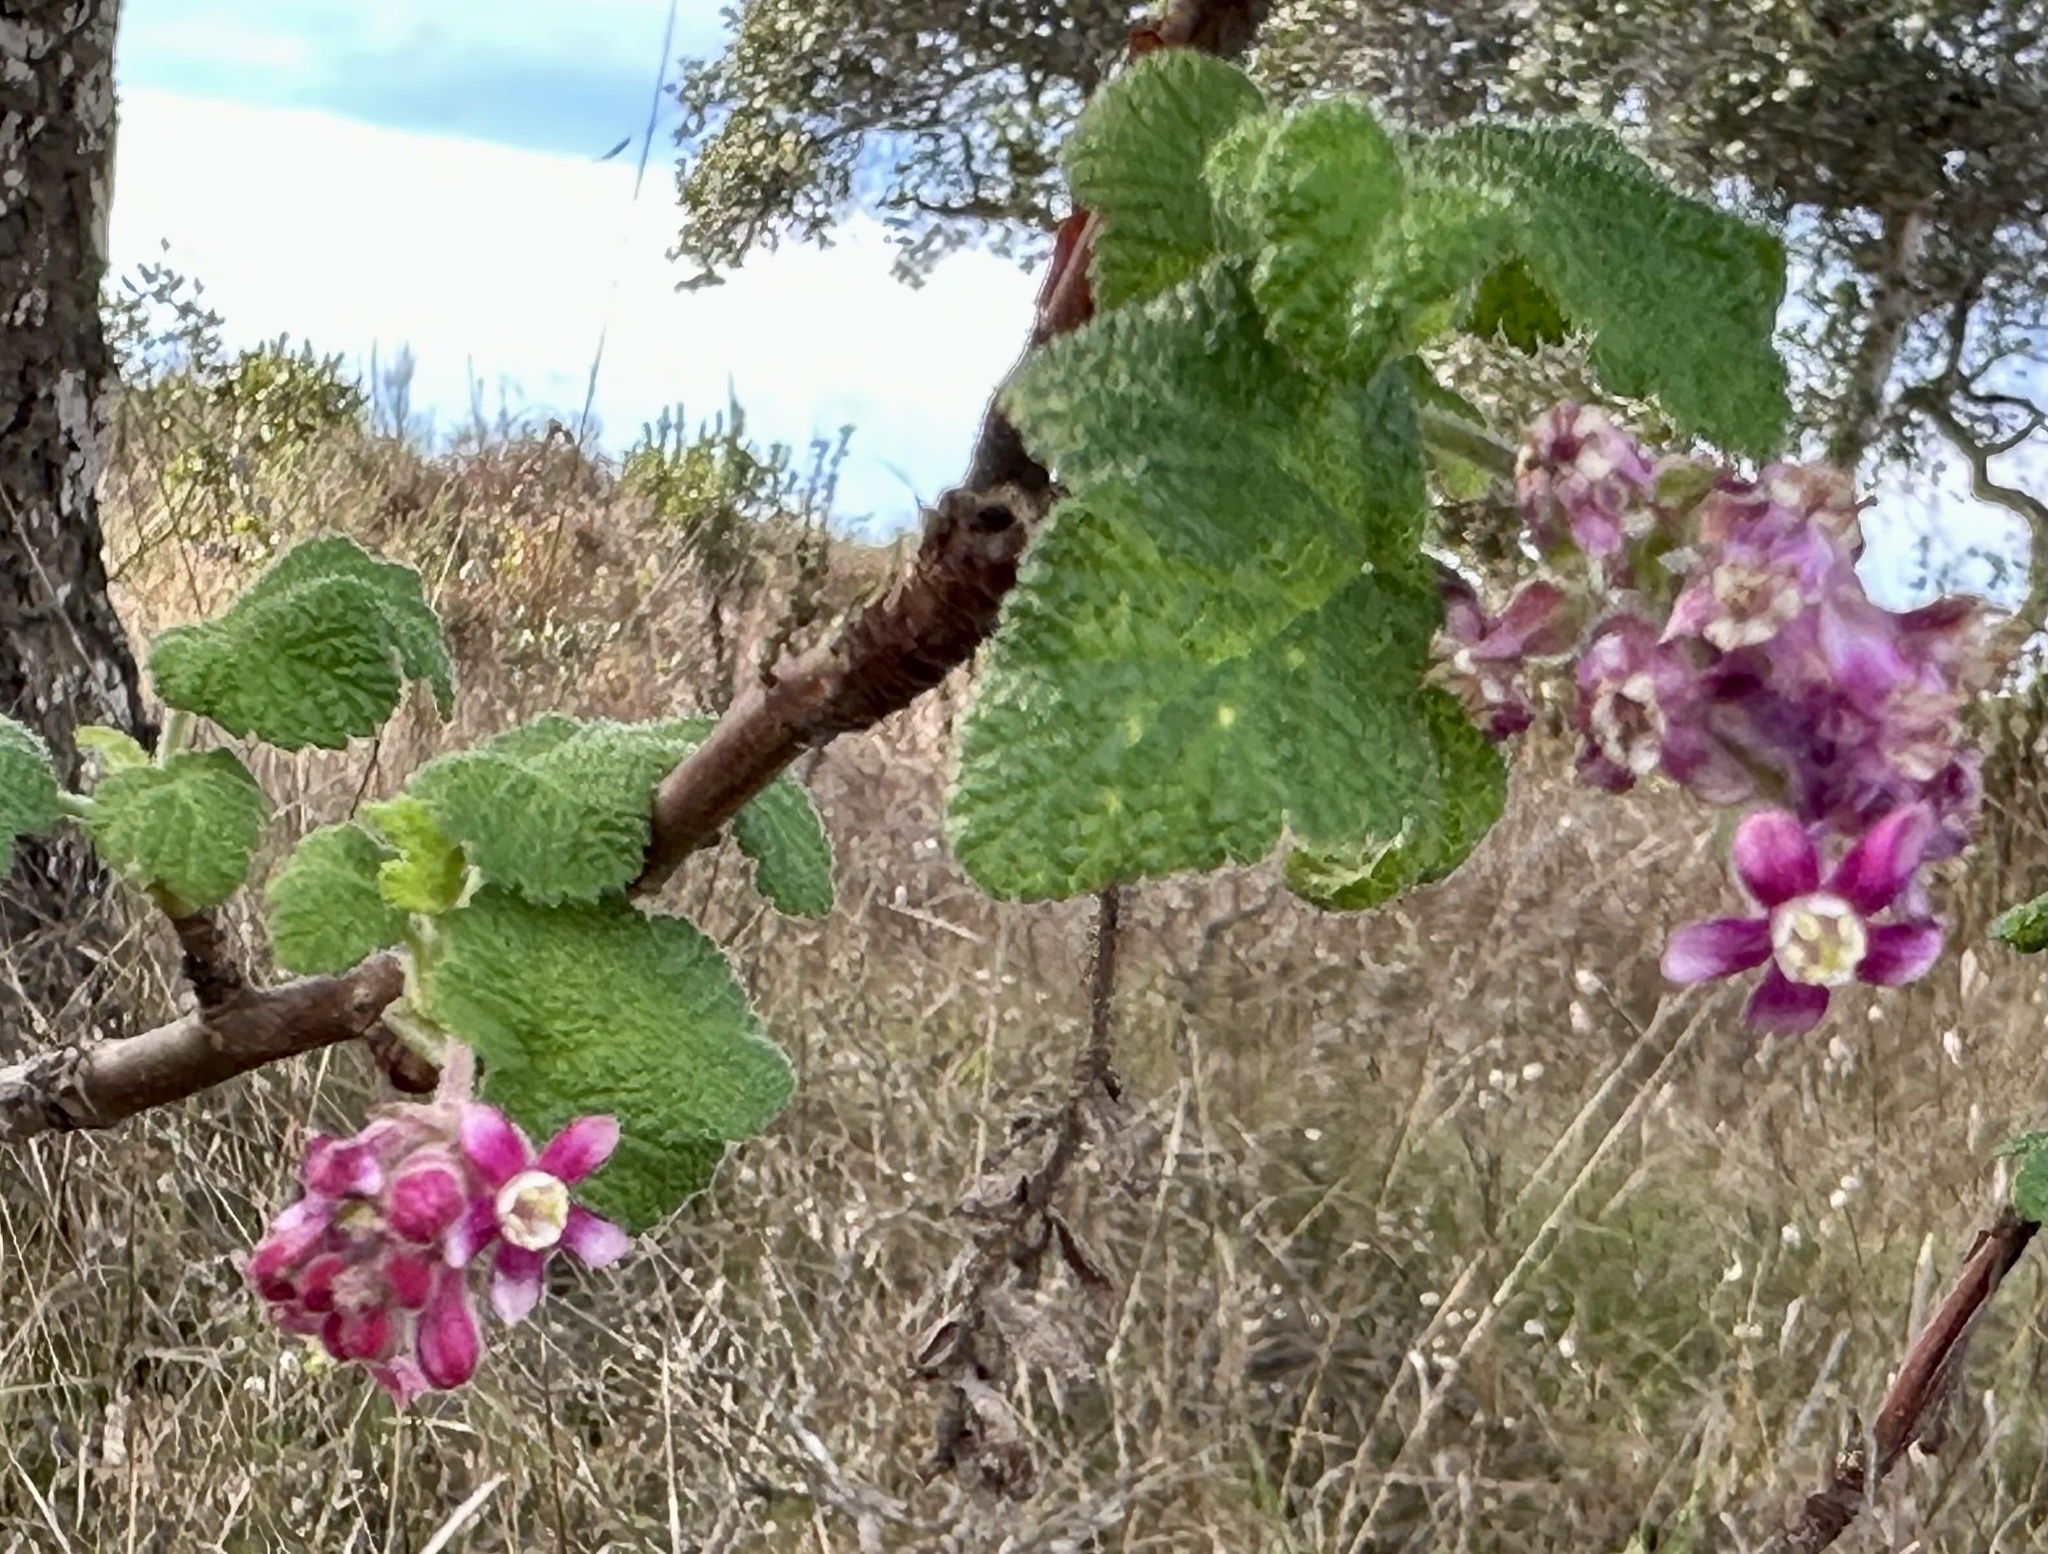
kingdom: Plantae
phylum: Tracheophyta
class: Magnoliopsida
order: Saxifragales
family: Grossulariaceae
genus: Ribes
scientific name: Ribes malvaceum
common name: Chaparral currant
